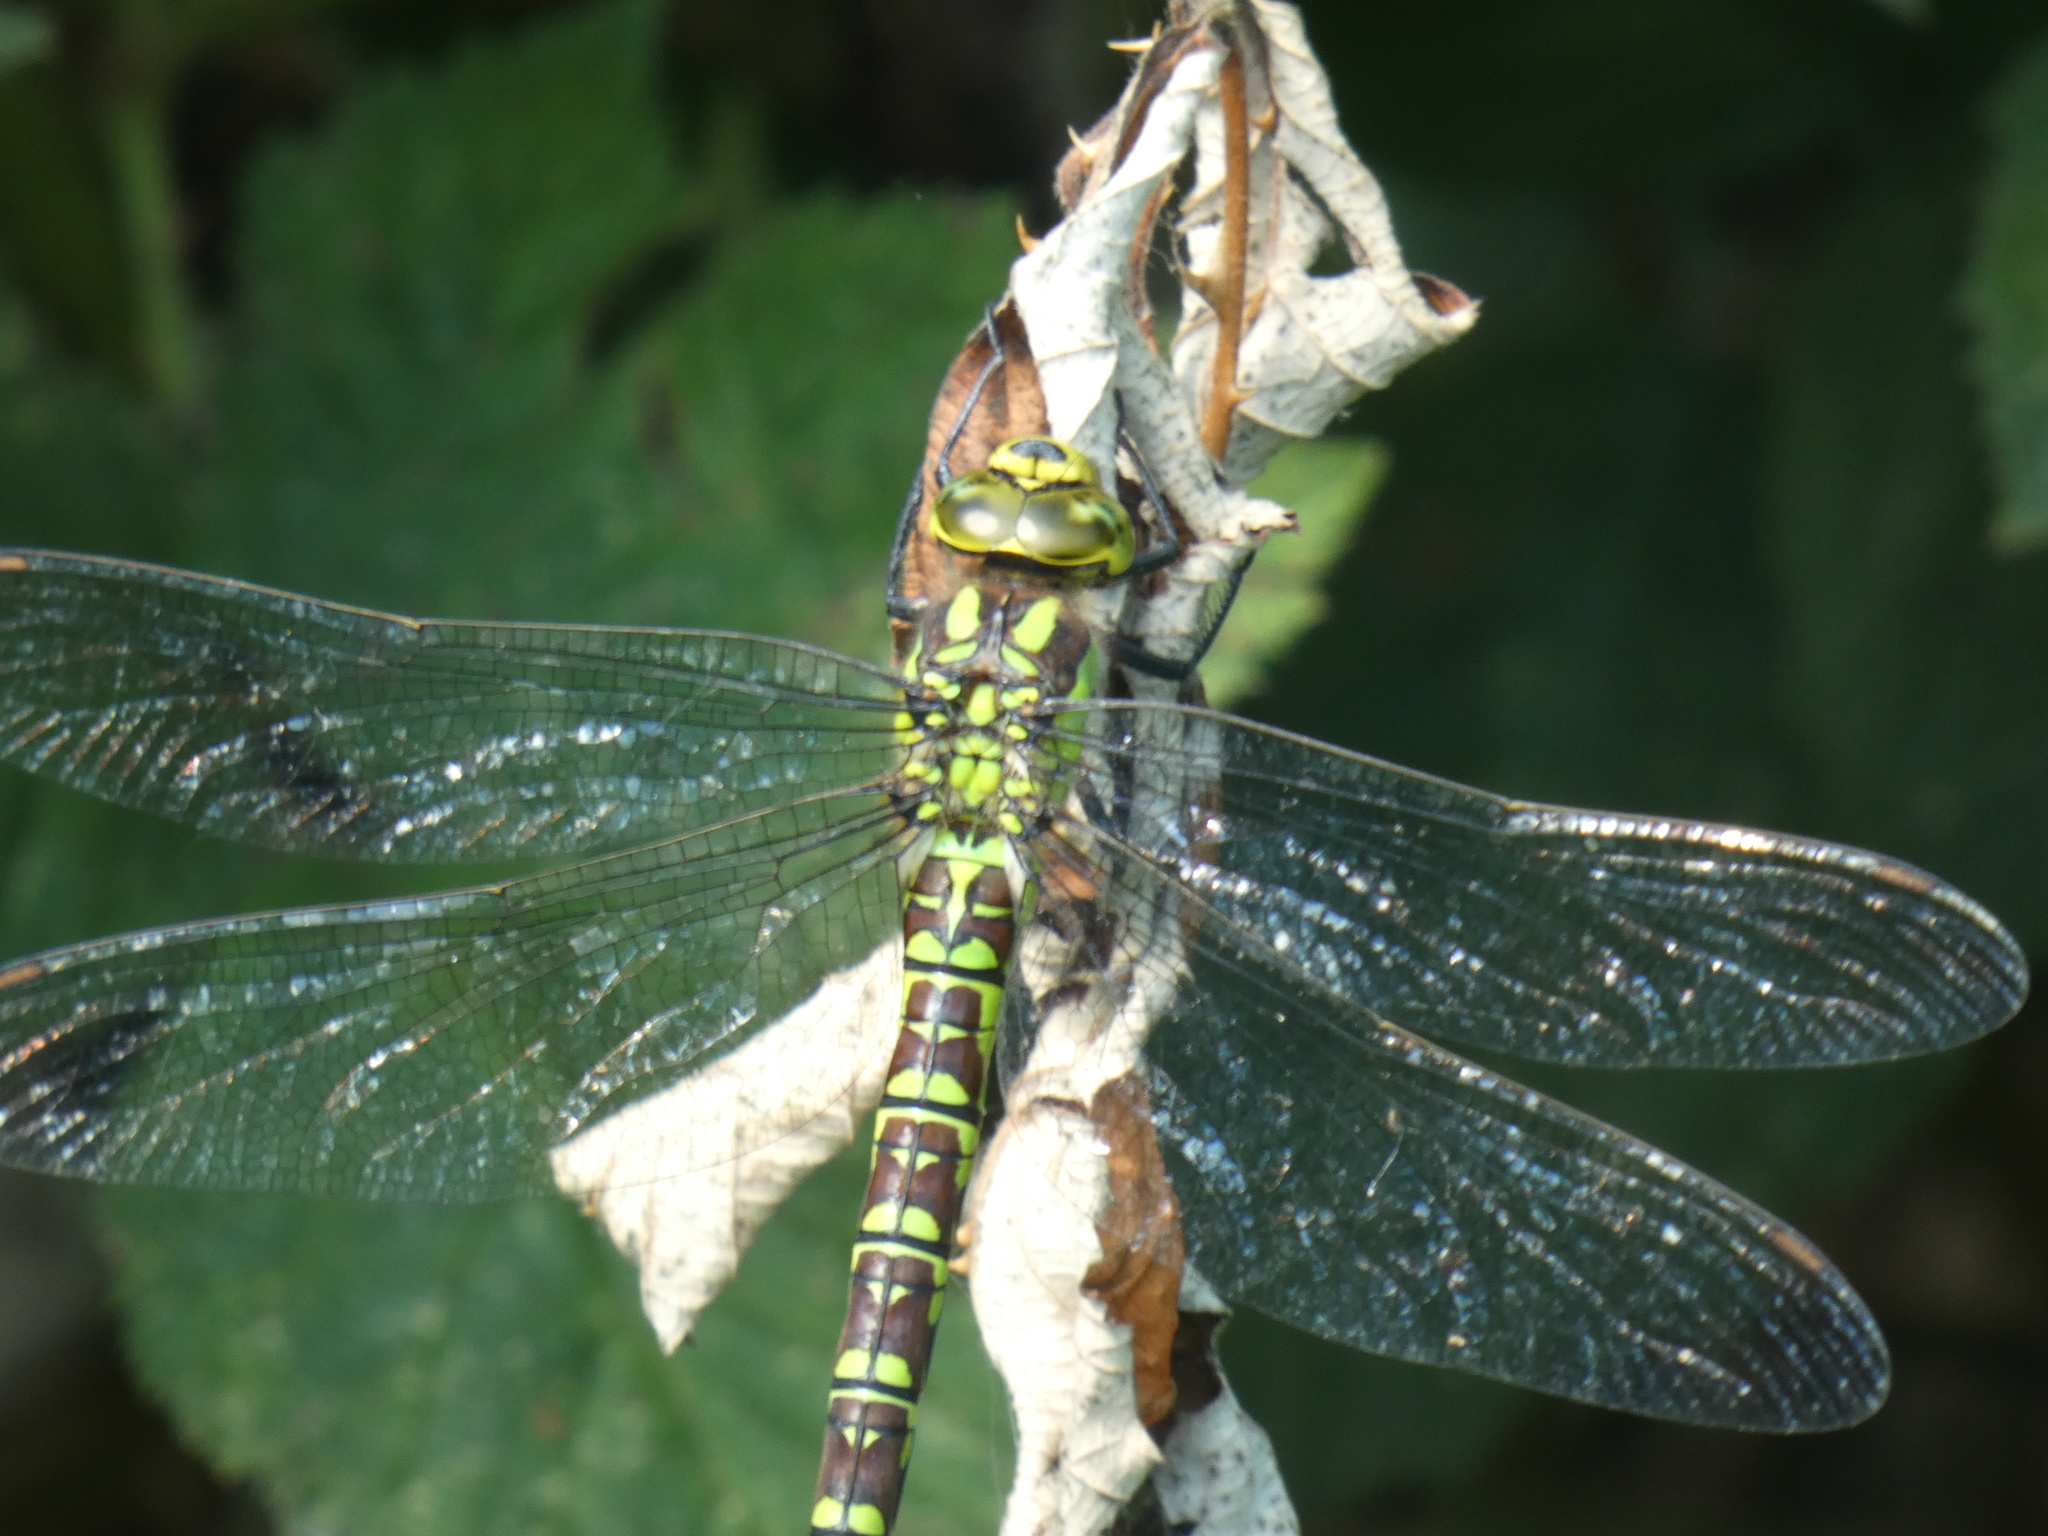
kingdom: Animalia
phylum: Arthropoda
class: Insecta
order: Odonata
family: Aeshnidae
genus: Aeshna
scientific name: Aeshna cyanea
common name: Southern hawker
